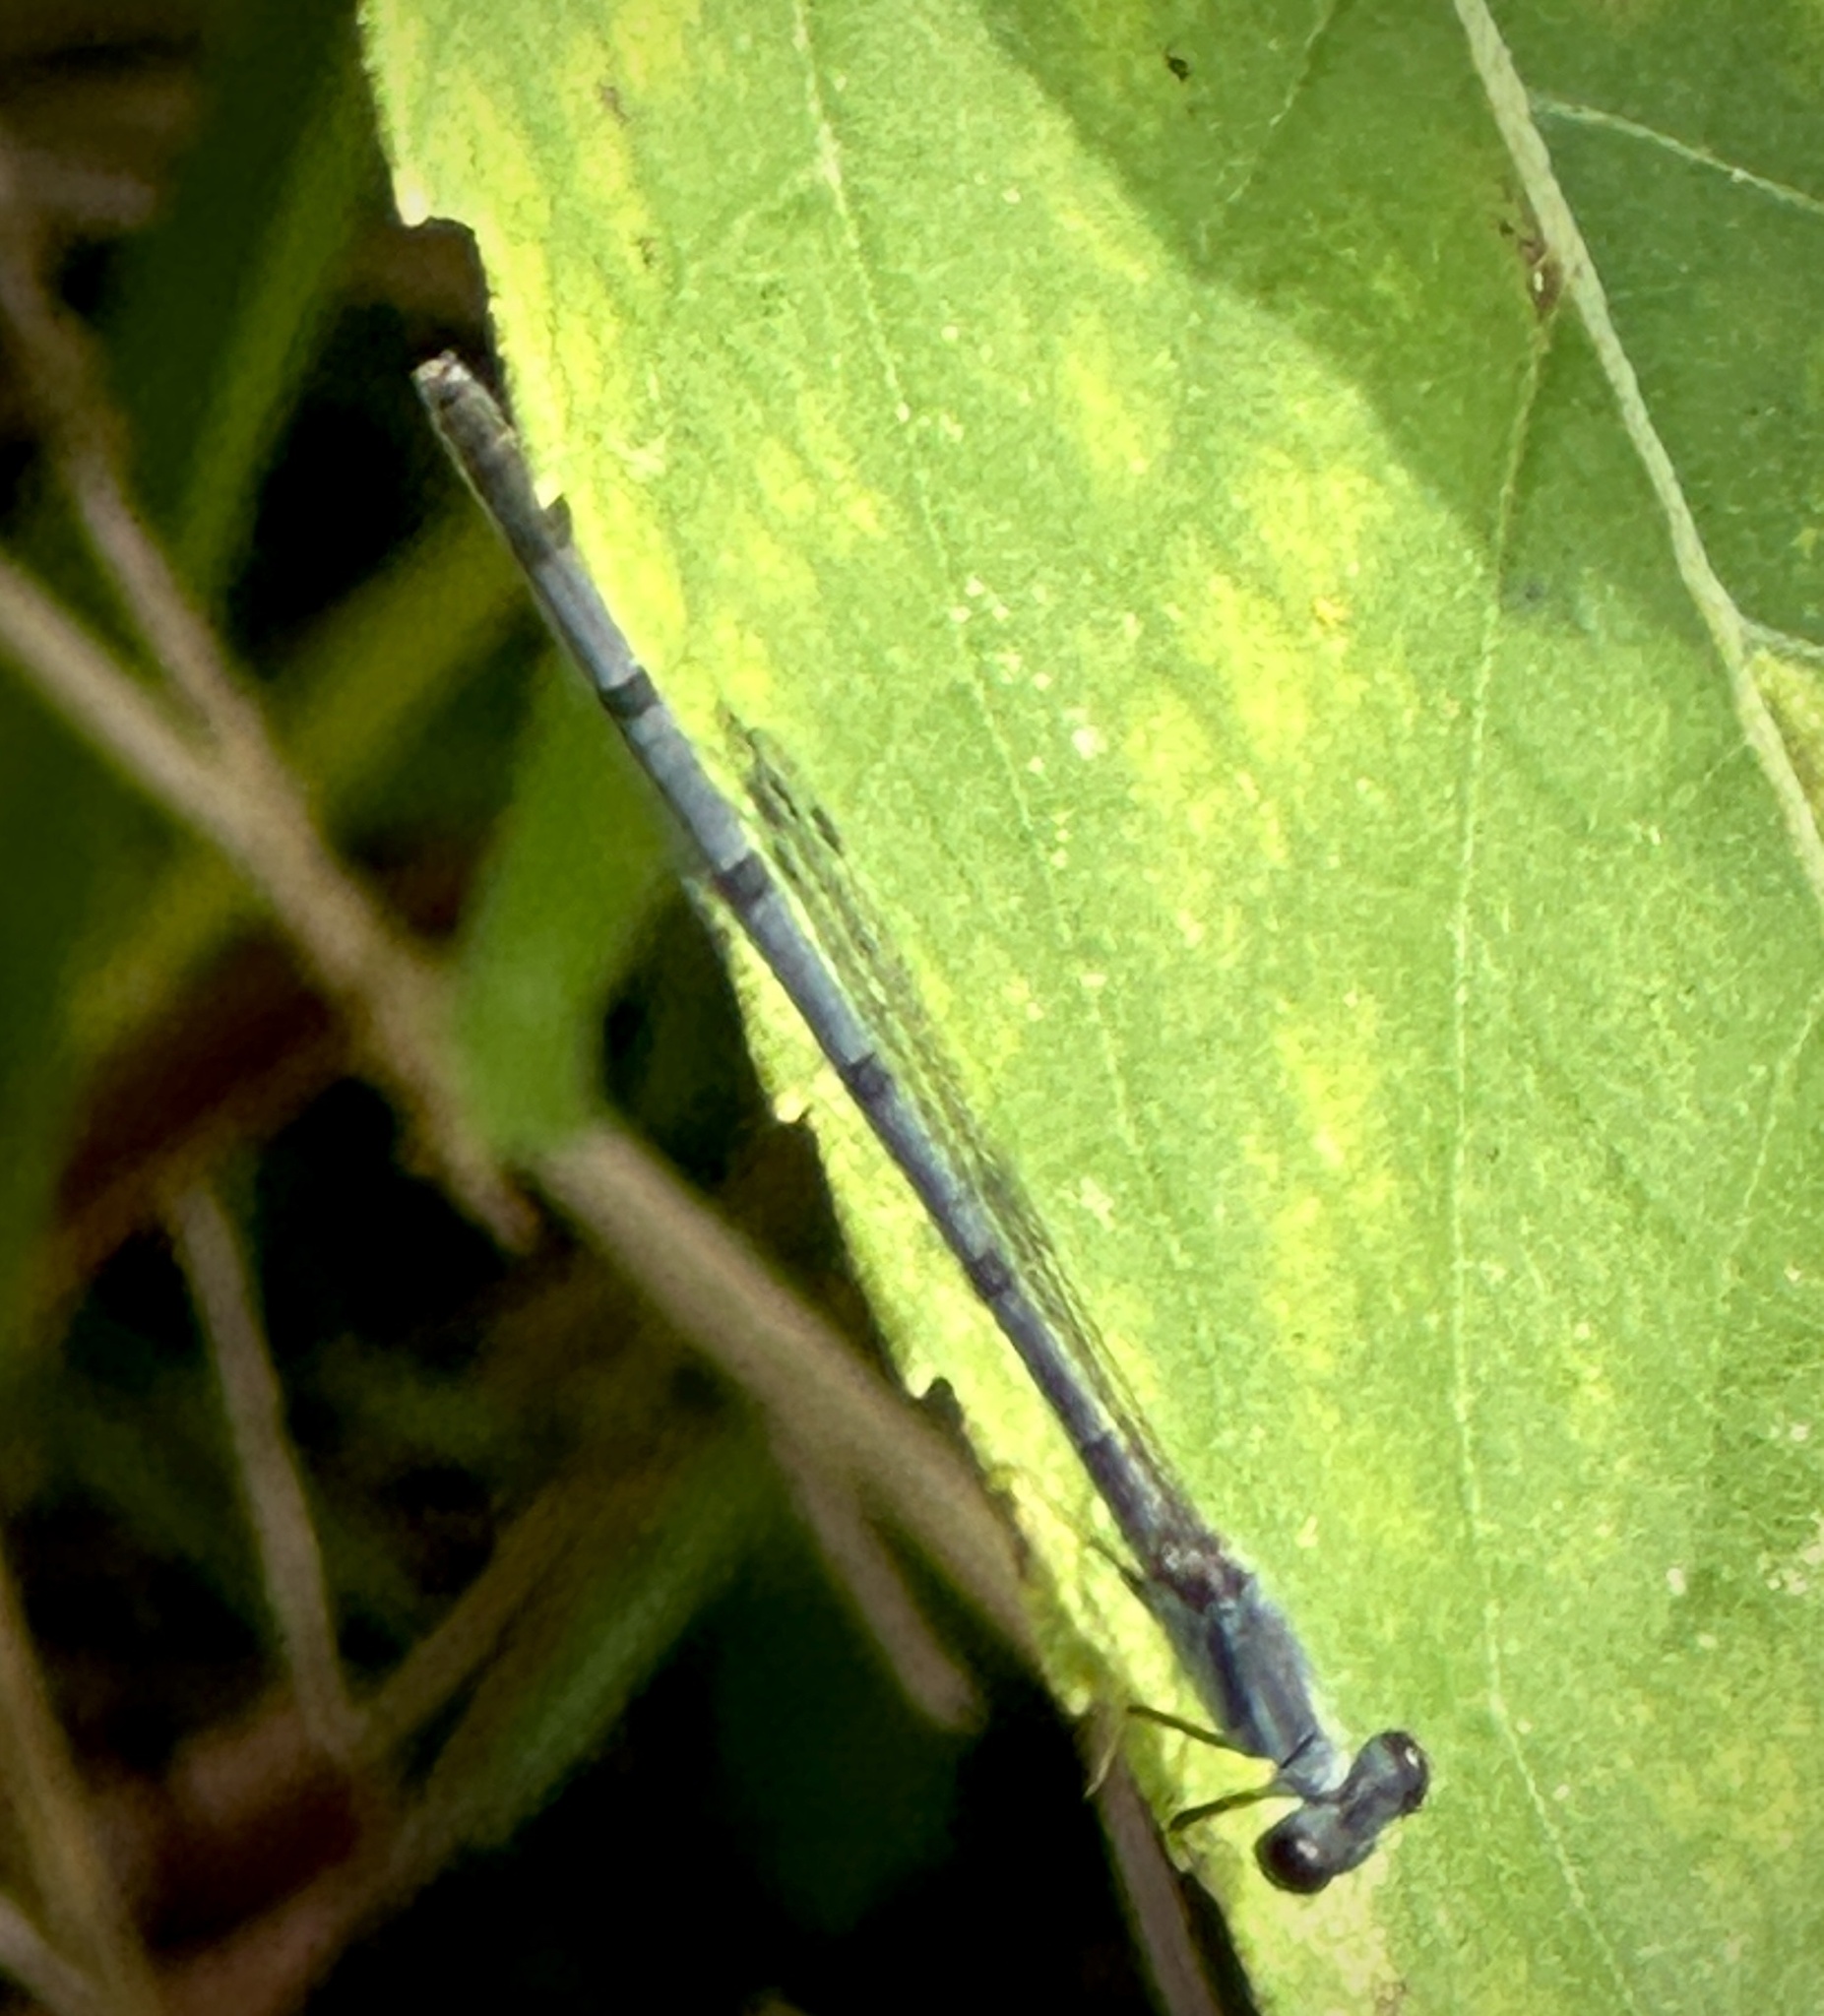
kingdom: Animalia
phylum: Arthropoda
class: Insecta
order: Odonata
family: Coenagrionidae
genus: Ischnura
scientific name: Ischnura posita
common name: Fragile forktail
